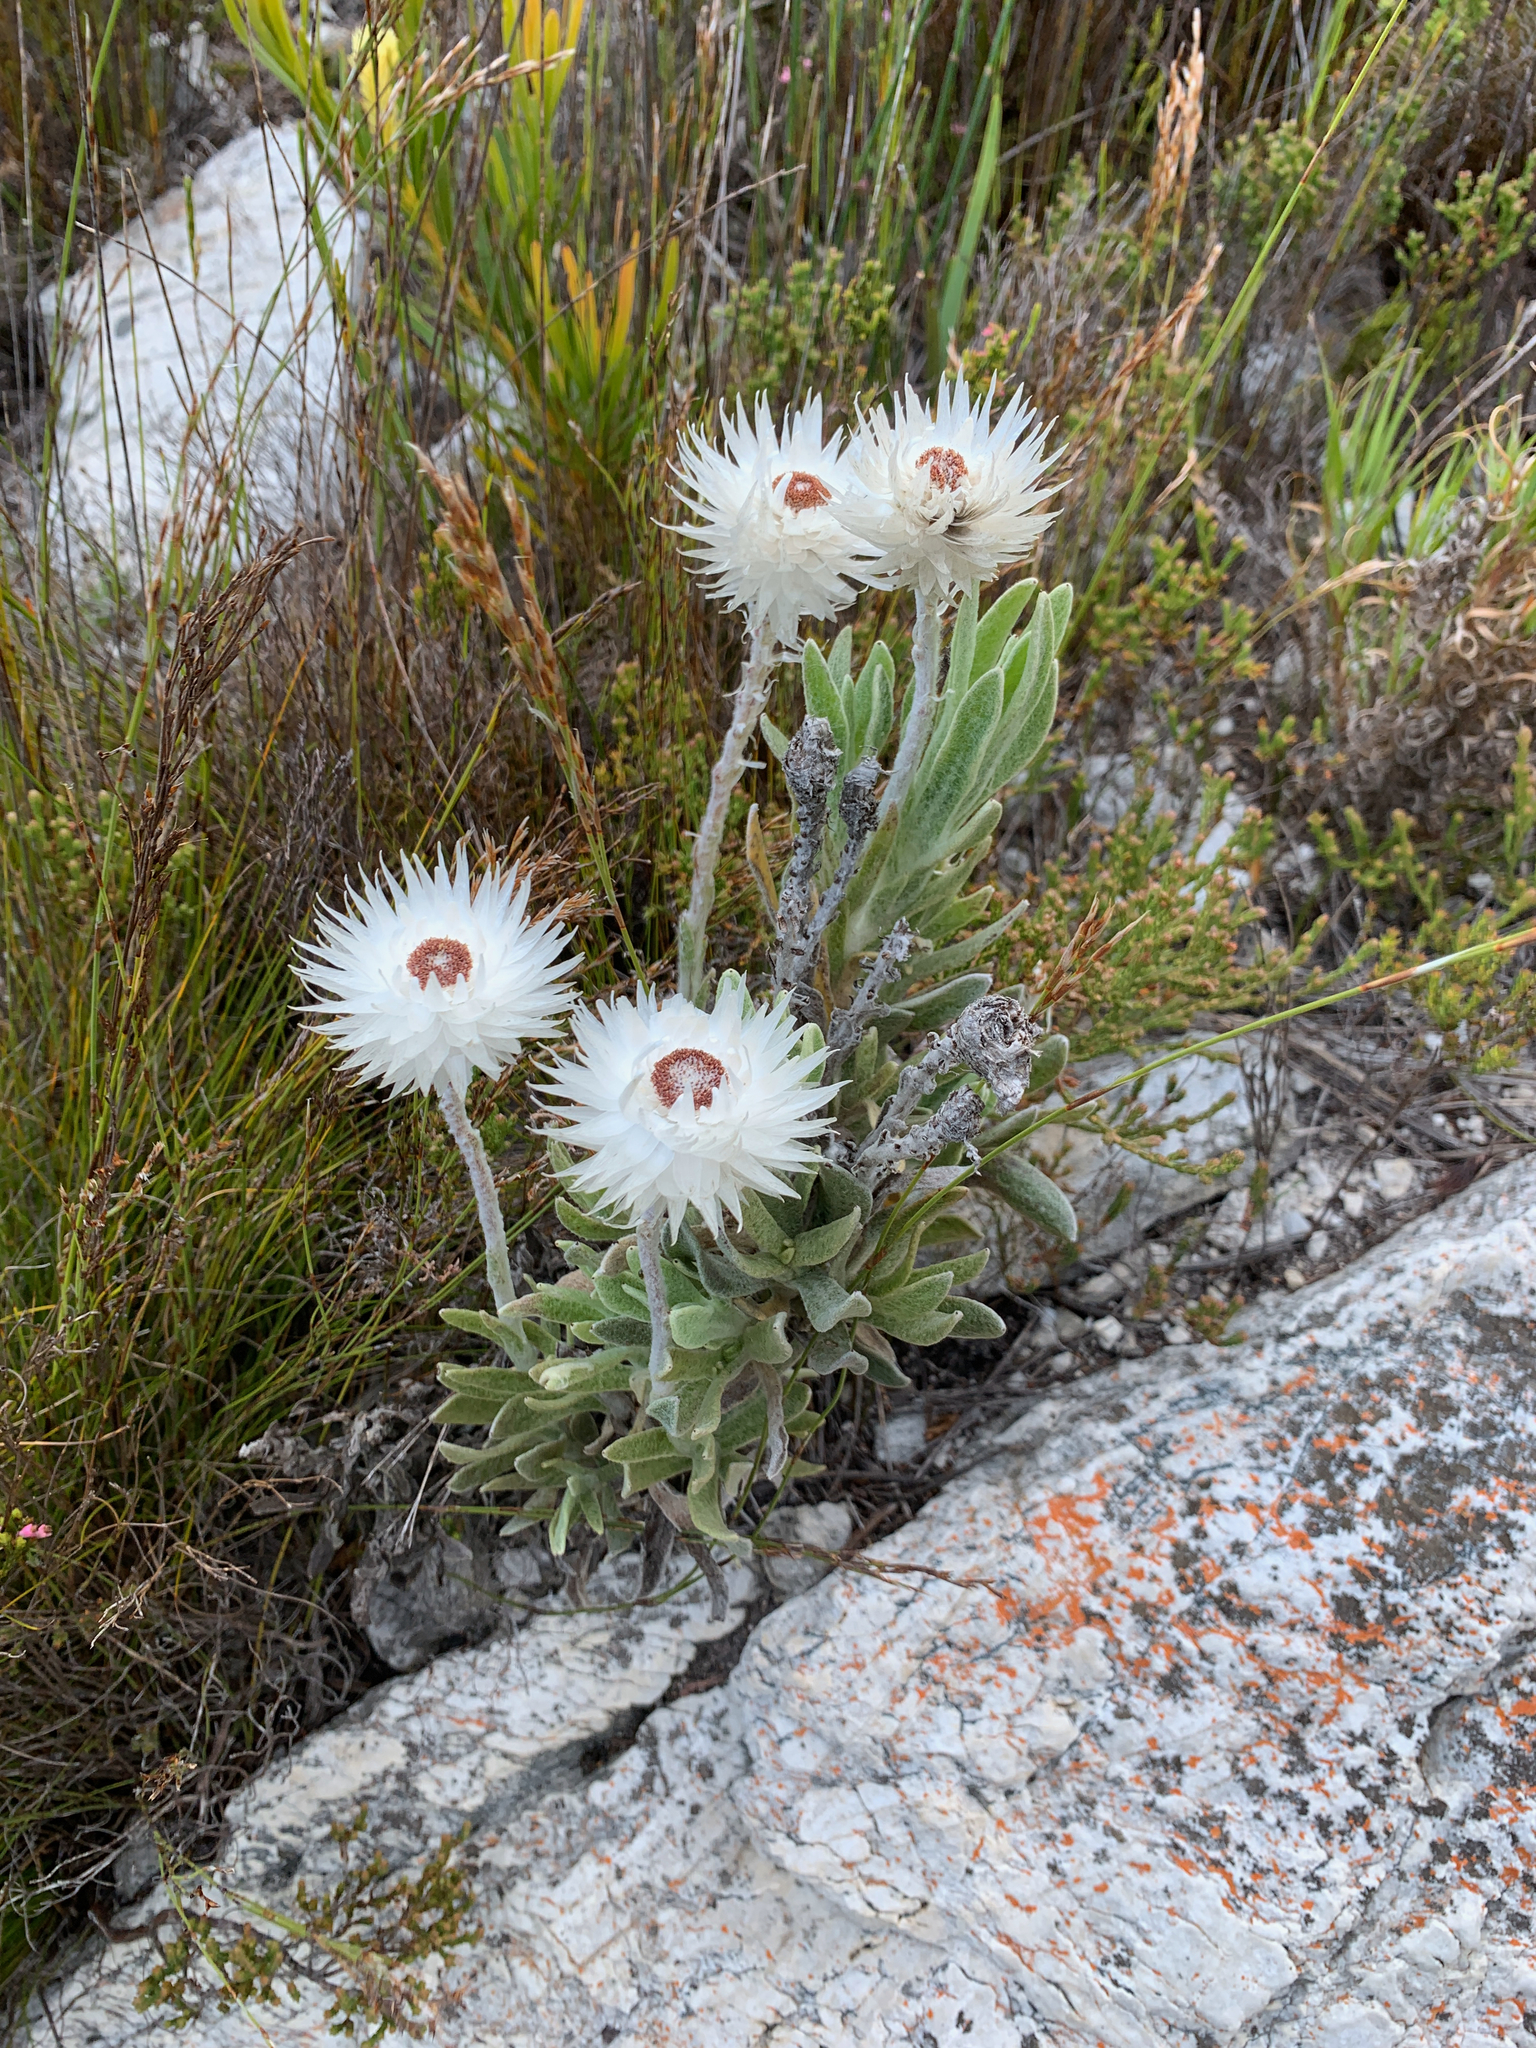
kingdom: Plantae
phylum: Tracheophyta
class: Magnoliopsida
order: Asterales
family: Asteraceae
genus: Syncarpha
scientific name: Syncarpha vestita
